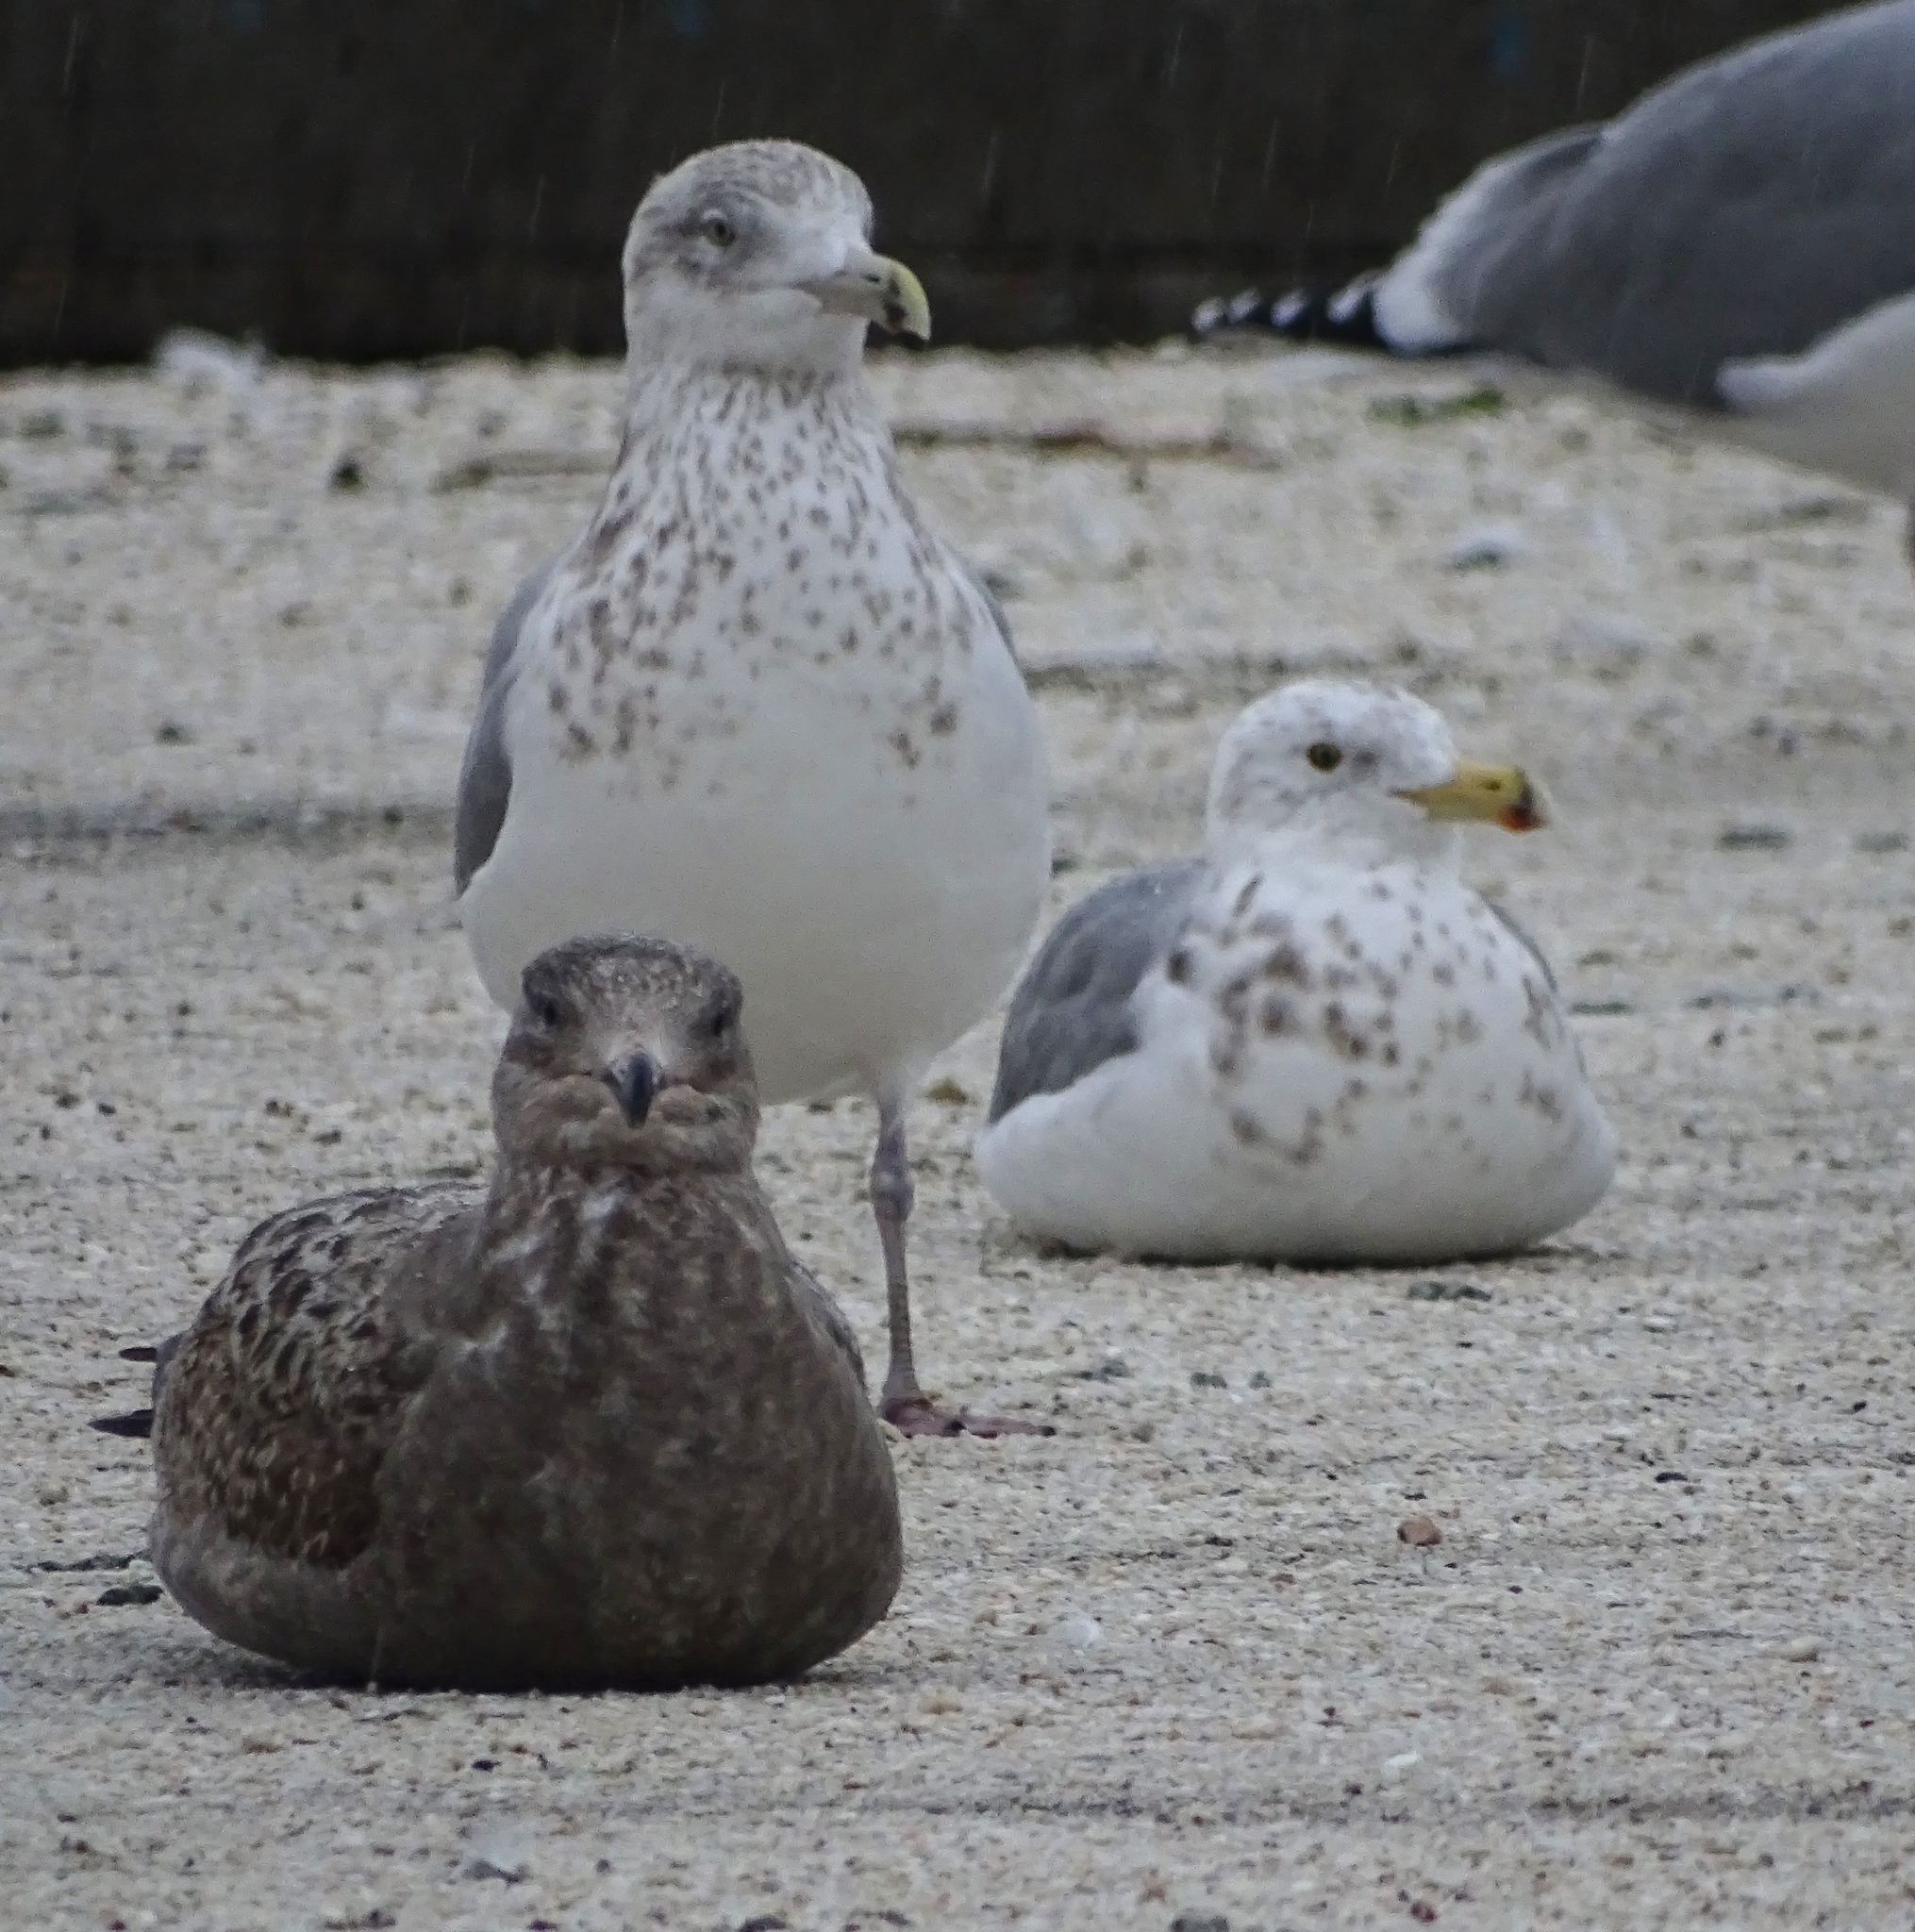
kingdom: Animalia
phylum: Chordata
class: Aves
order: Charadriiformes
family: Laridae
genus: Larus
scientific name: Larus argentatus
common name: Herring gull
